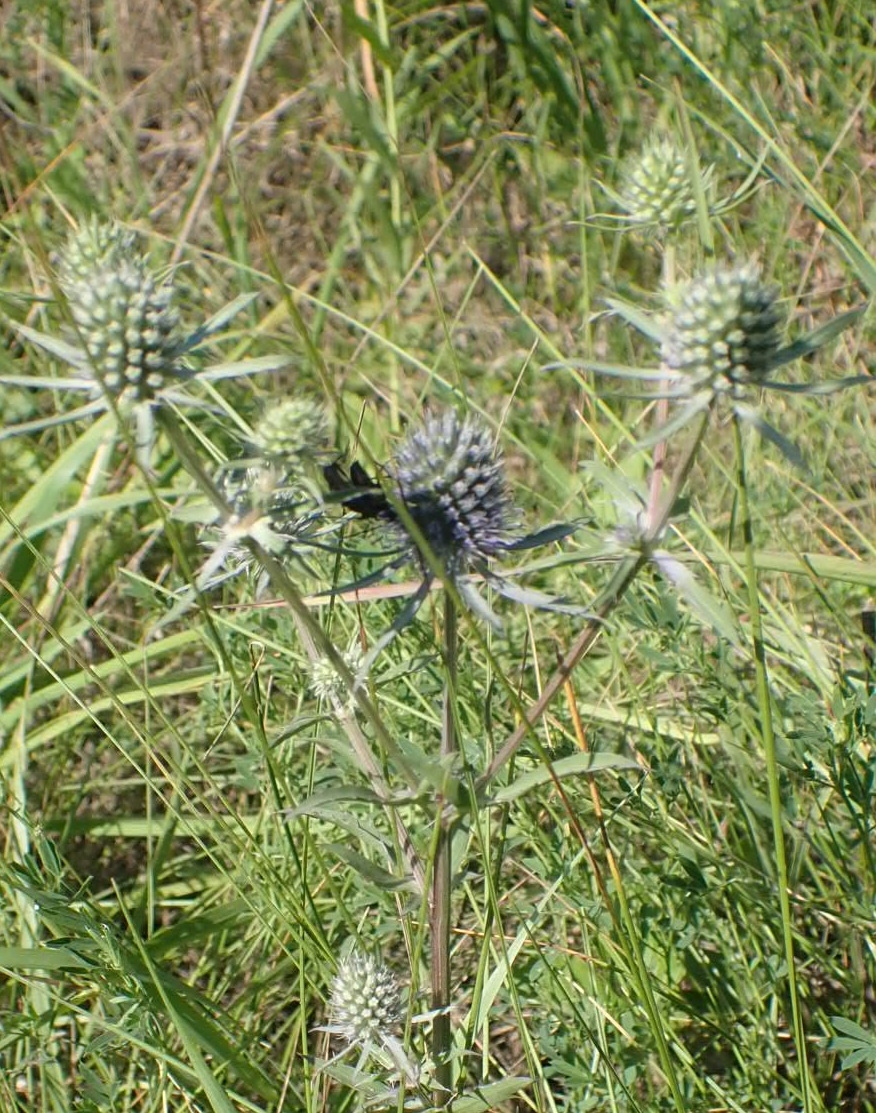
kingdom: Plantae
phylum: Tracheophyta
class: Magnoliopsida
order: Apiales
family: Apiaceae
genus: Eryngium
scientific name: Eryngium planum
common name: Blue eryngo
